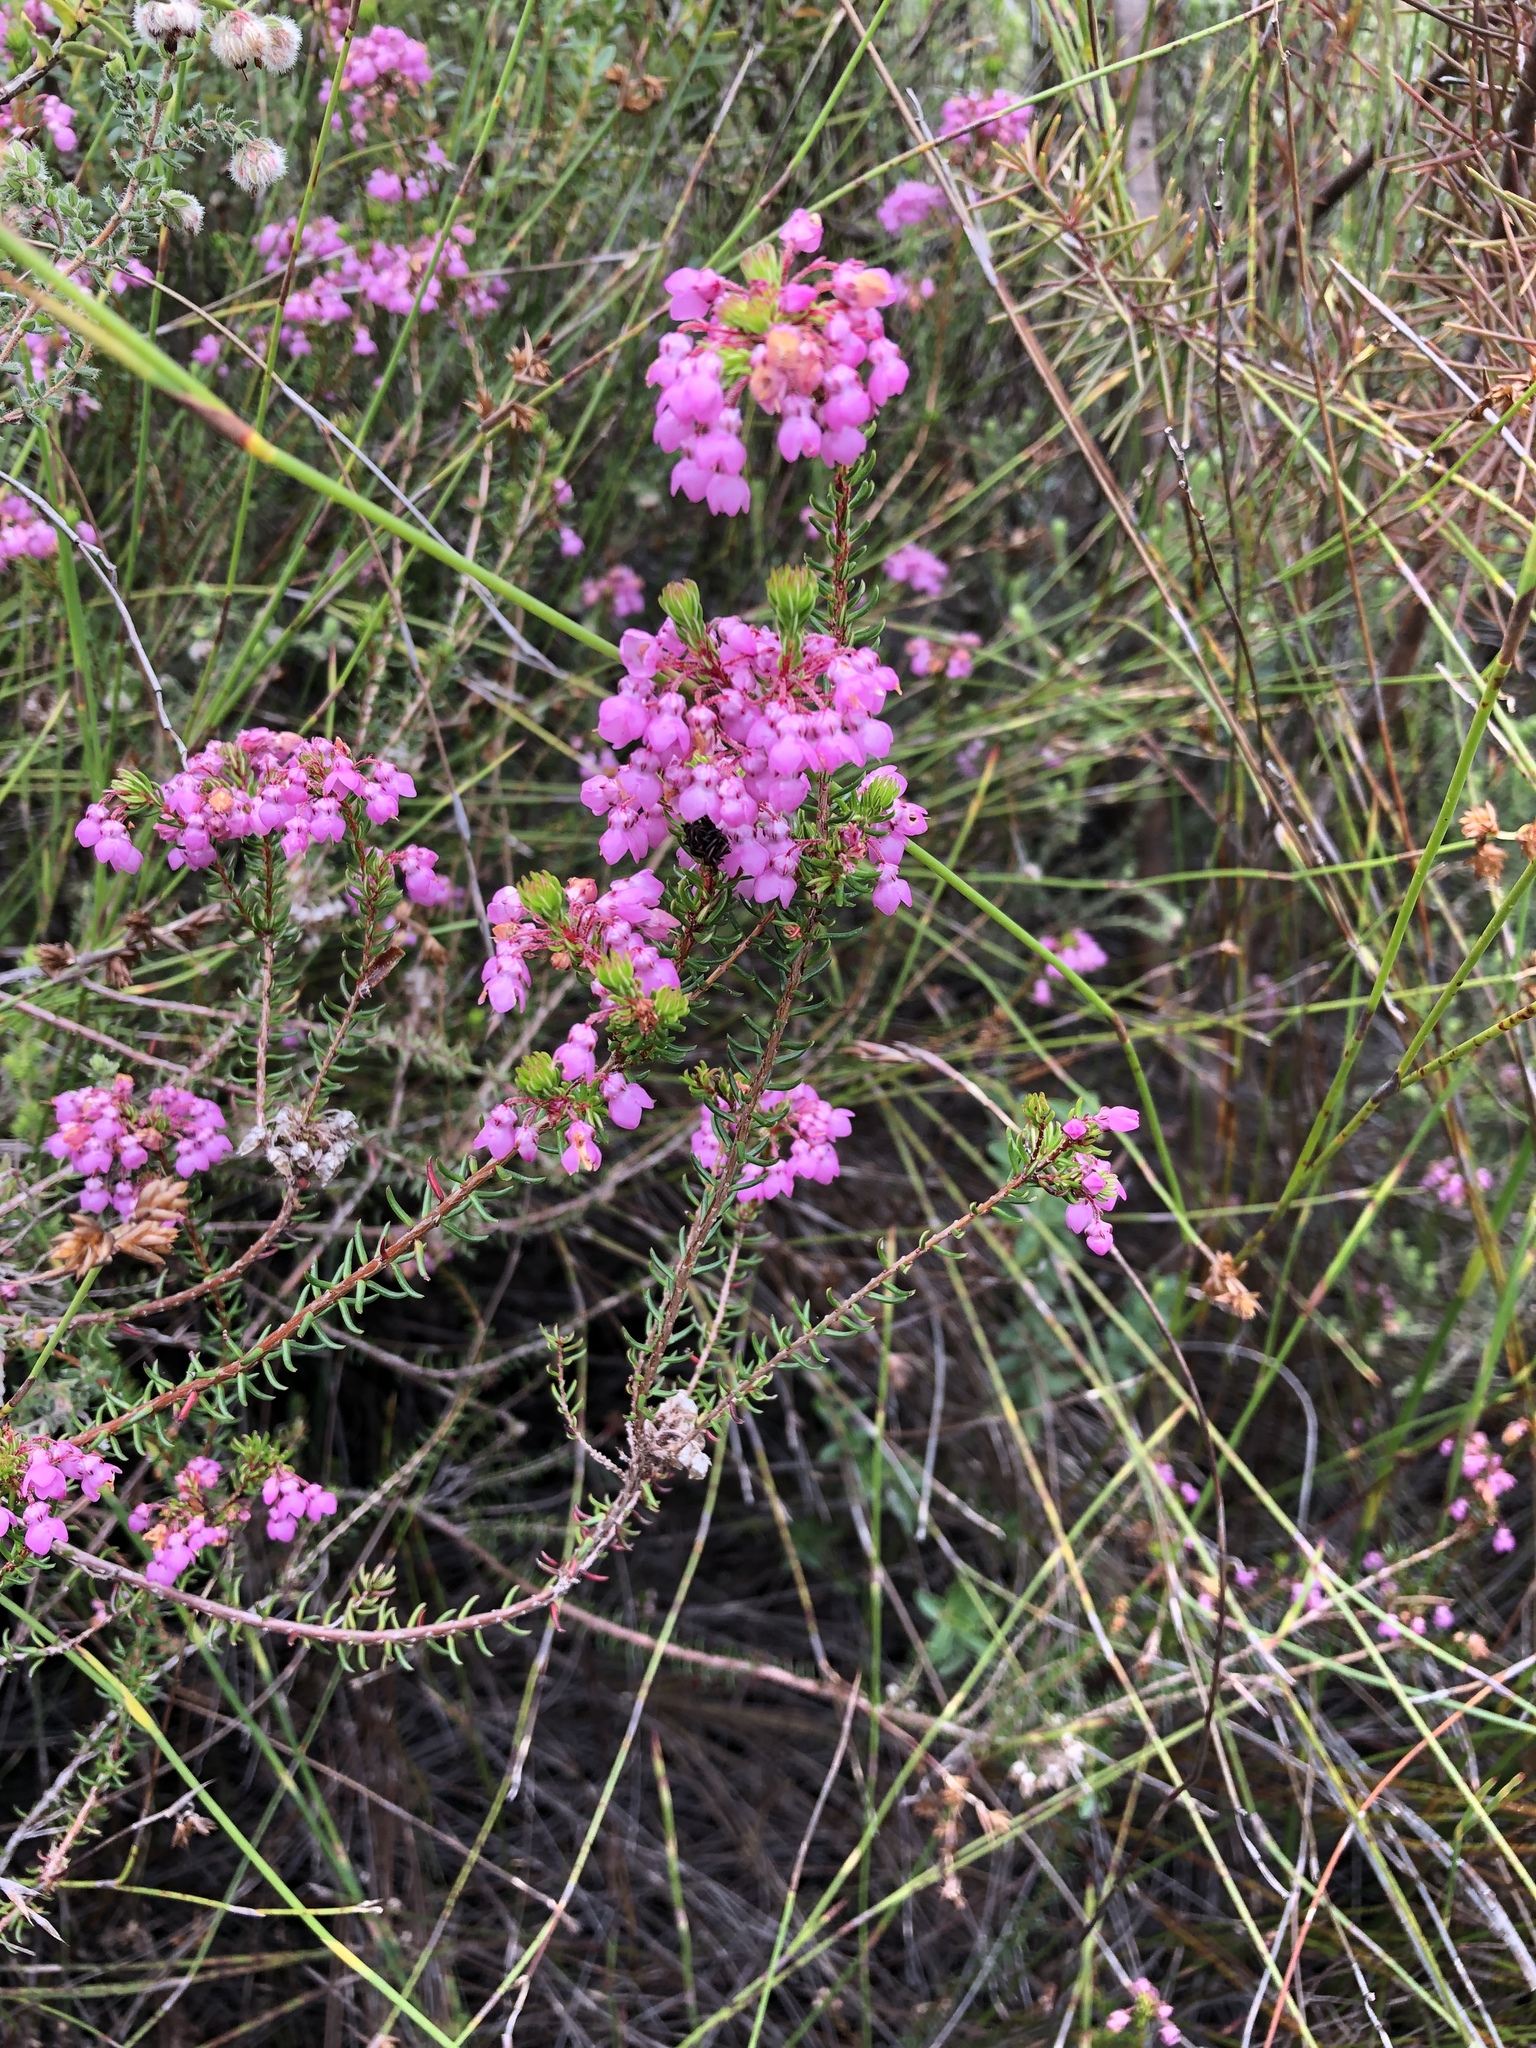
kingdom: Plantae
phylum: Tracheophyta
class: Magnoliopsida
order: Ericales
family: Ericaceae
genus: Erica
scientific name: Erica cubica
